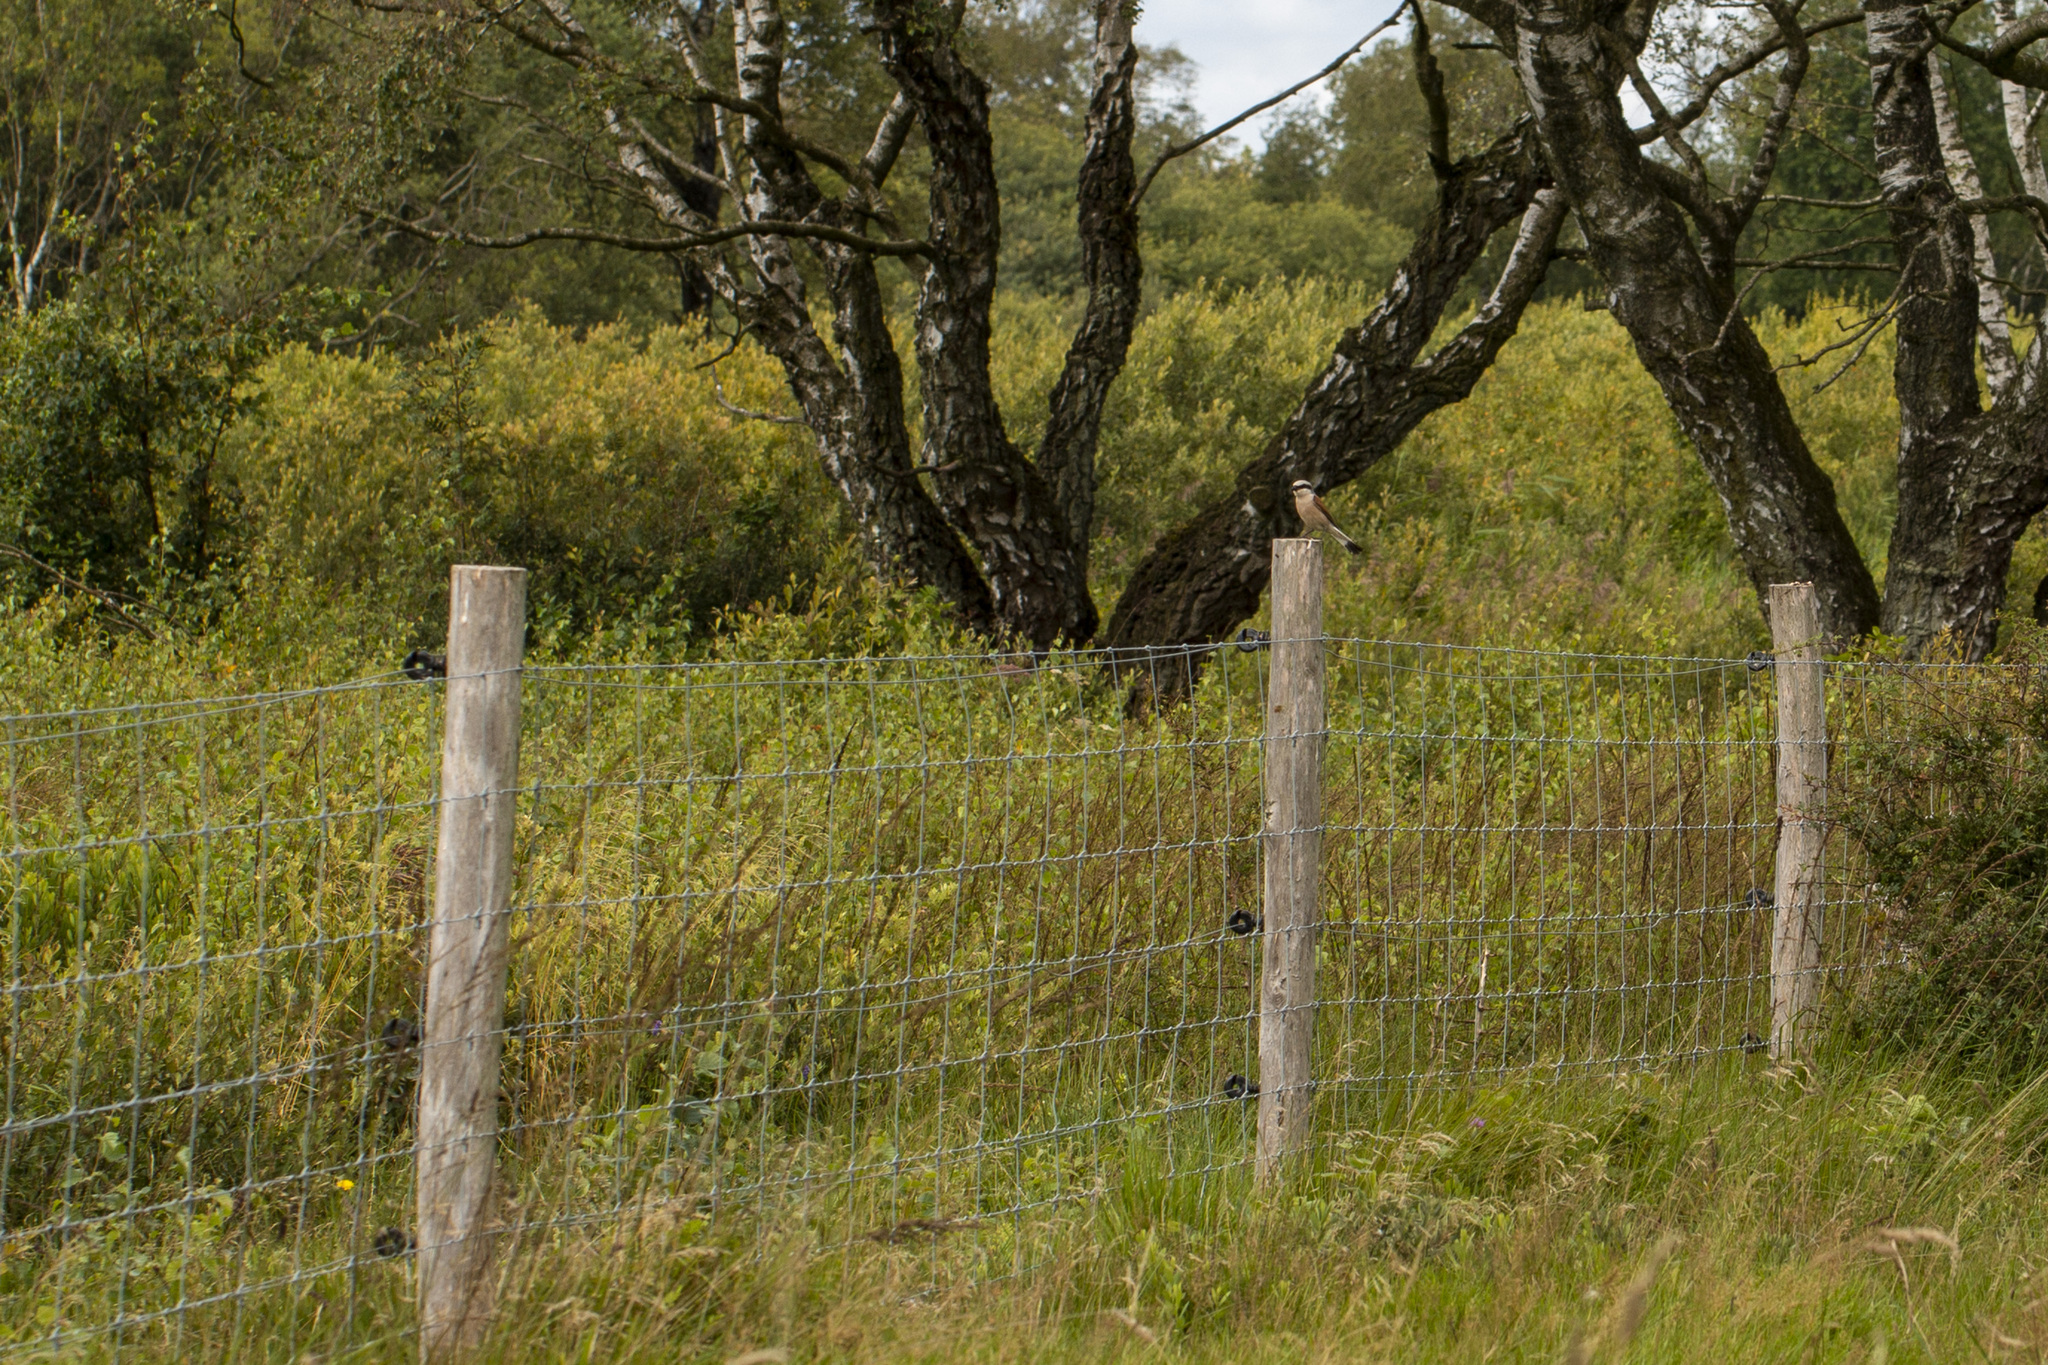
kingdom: Animalia
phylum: Chordata
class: Aves
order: Passeriformes
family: Laniidae
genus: Lanius
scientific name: Lanius collurio
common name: Red-backed shrike
